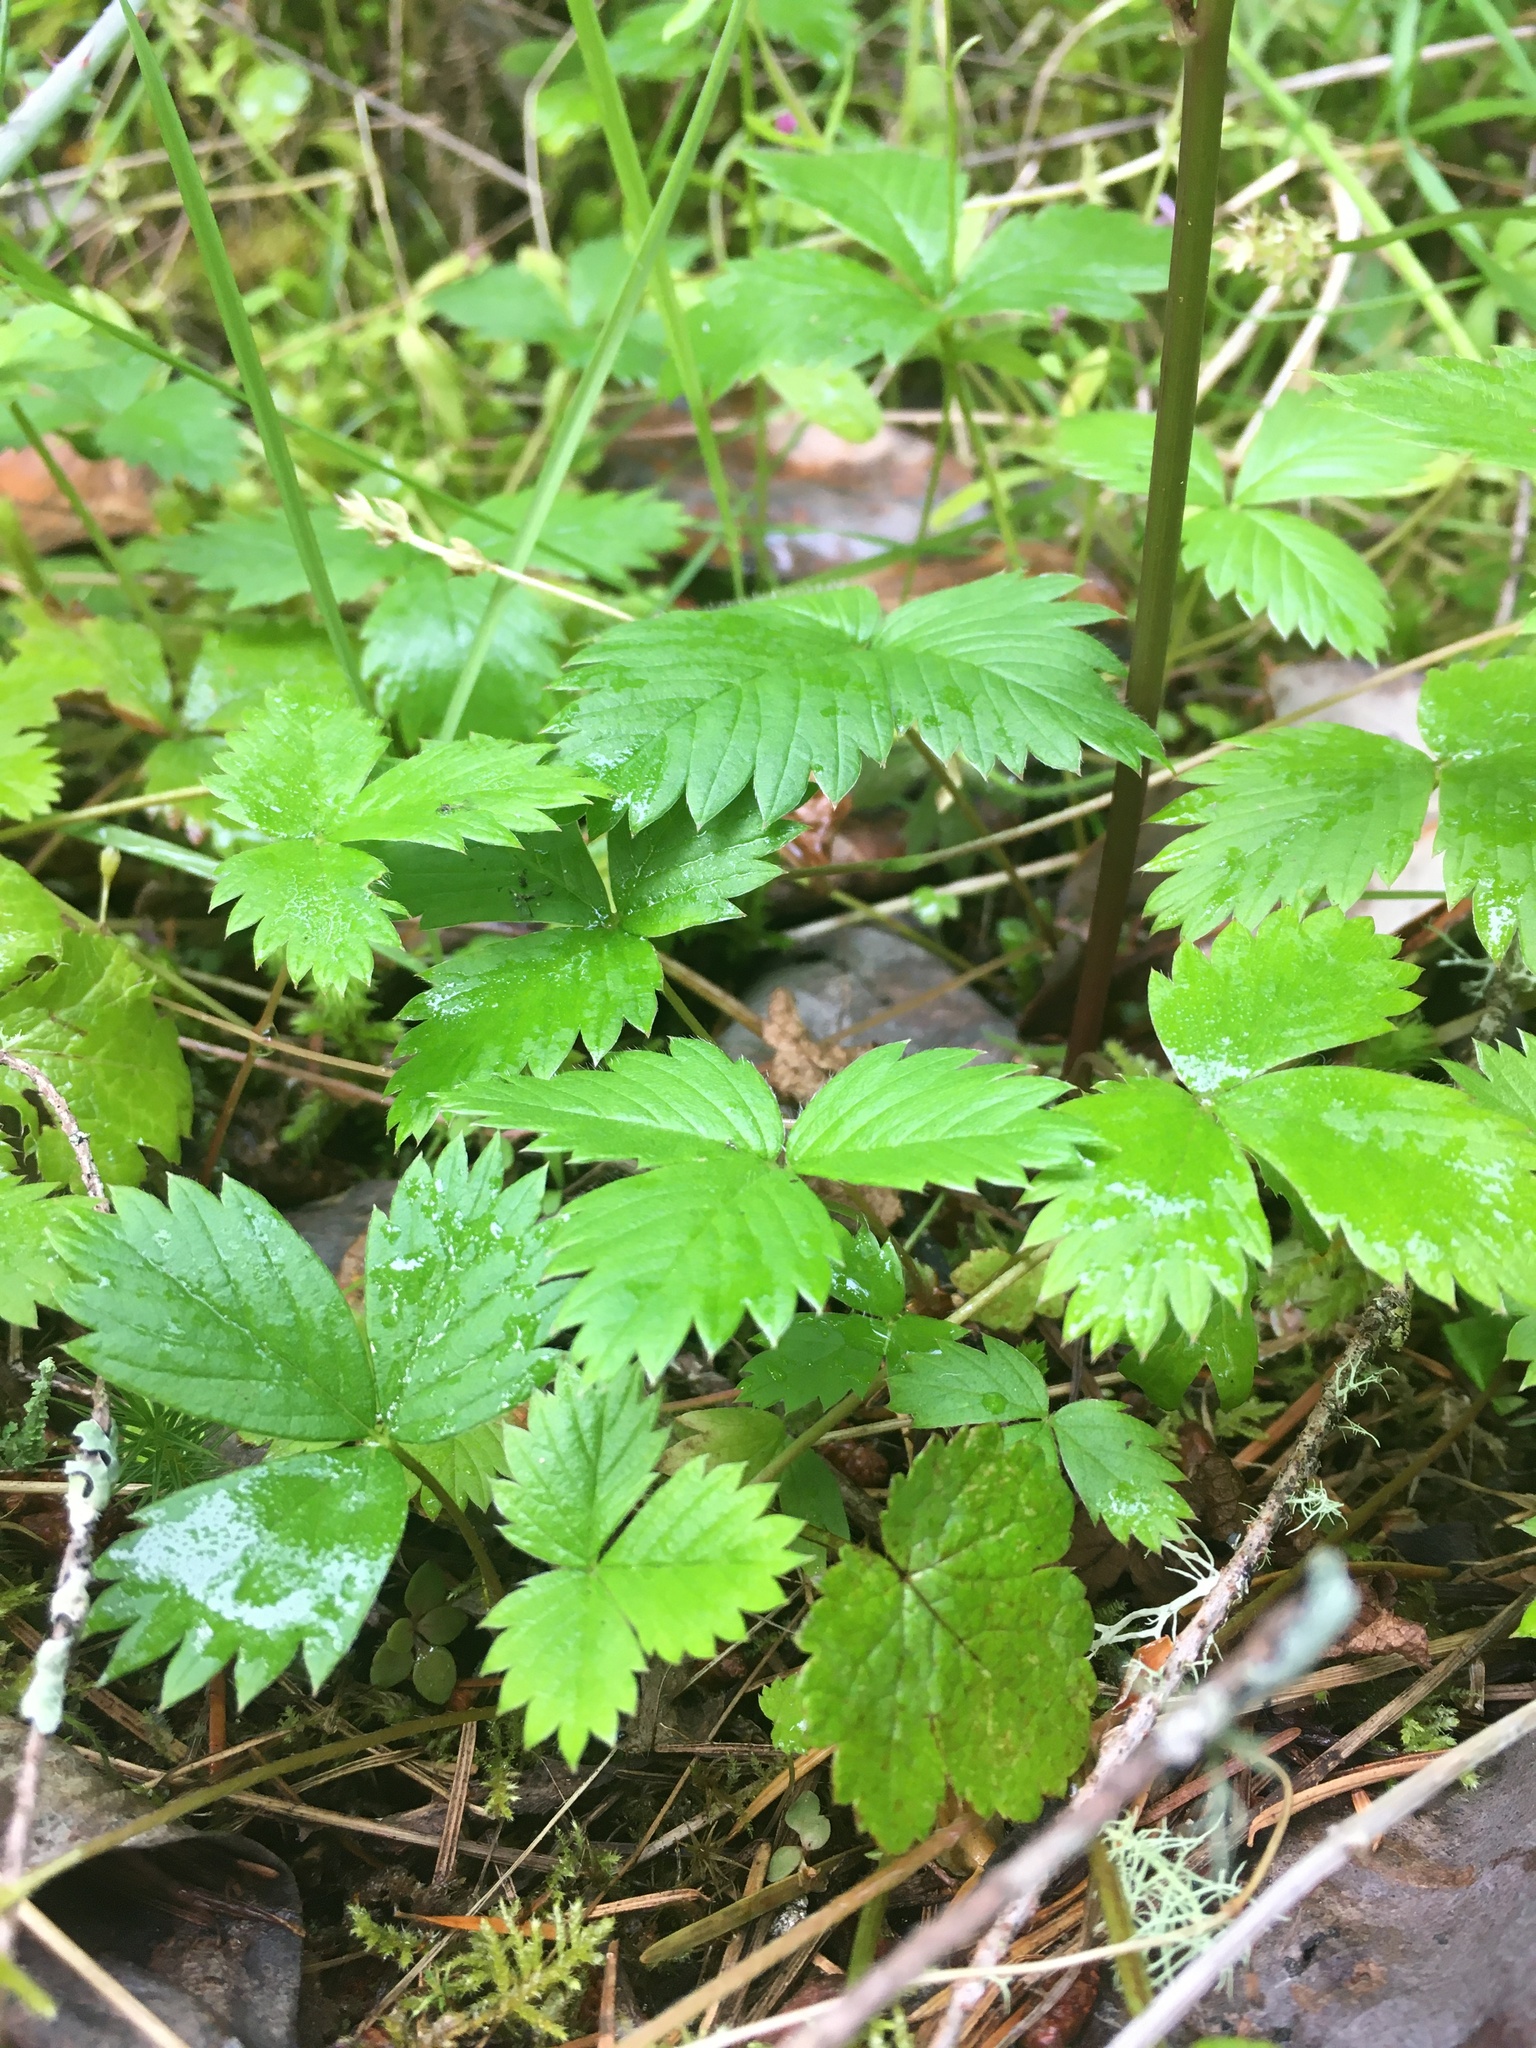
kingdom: Plantae
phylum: Tracheophyta
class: Magnoliopsida
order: Rosales
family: Rosaceae
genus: Fragaria
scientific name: Fragaria vesca
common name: Wild strawberry
